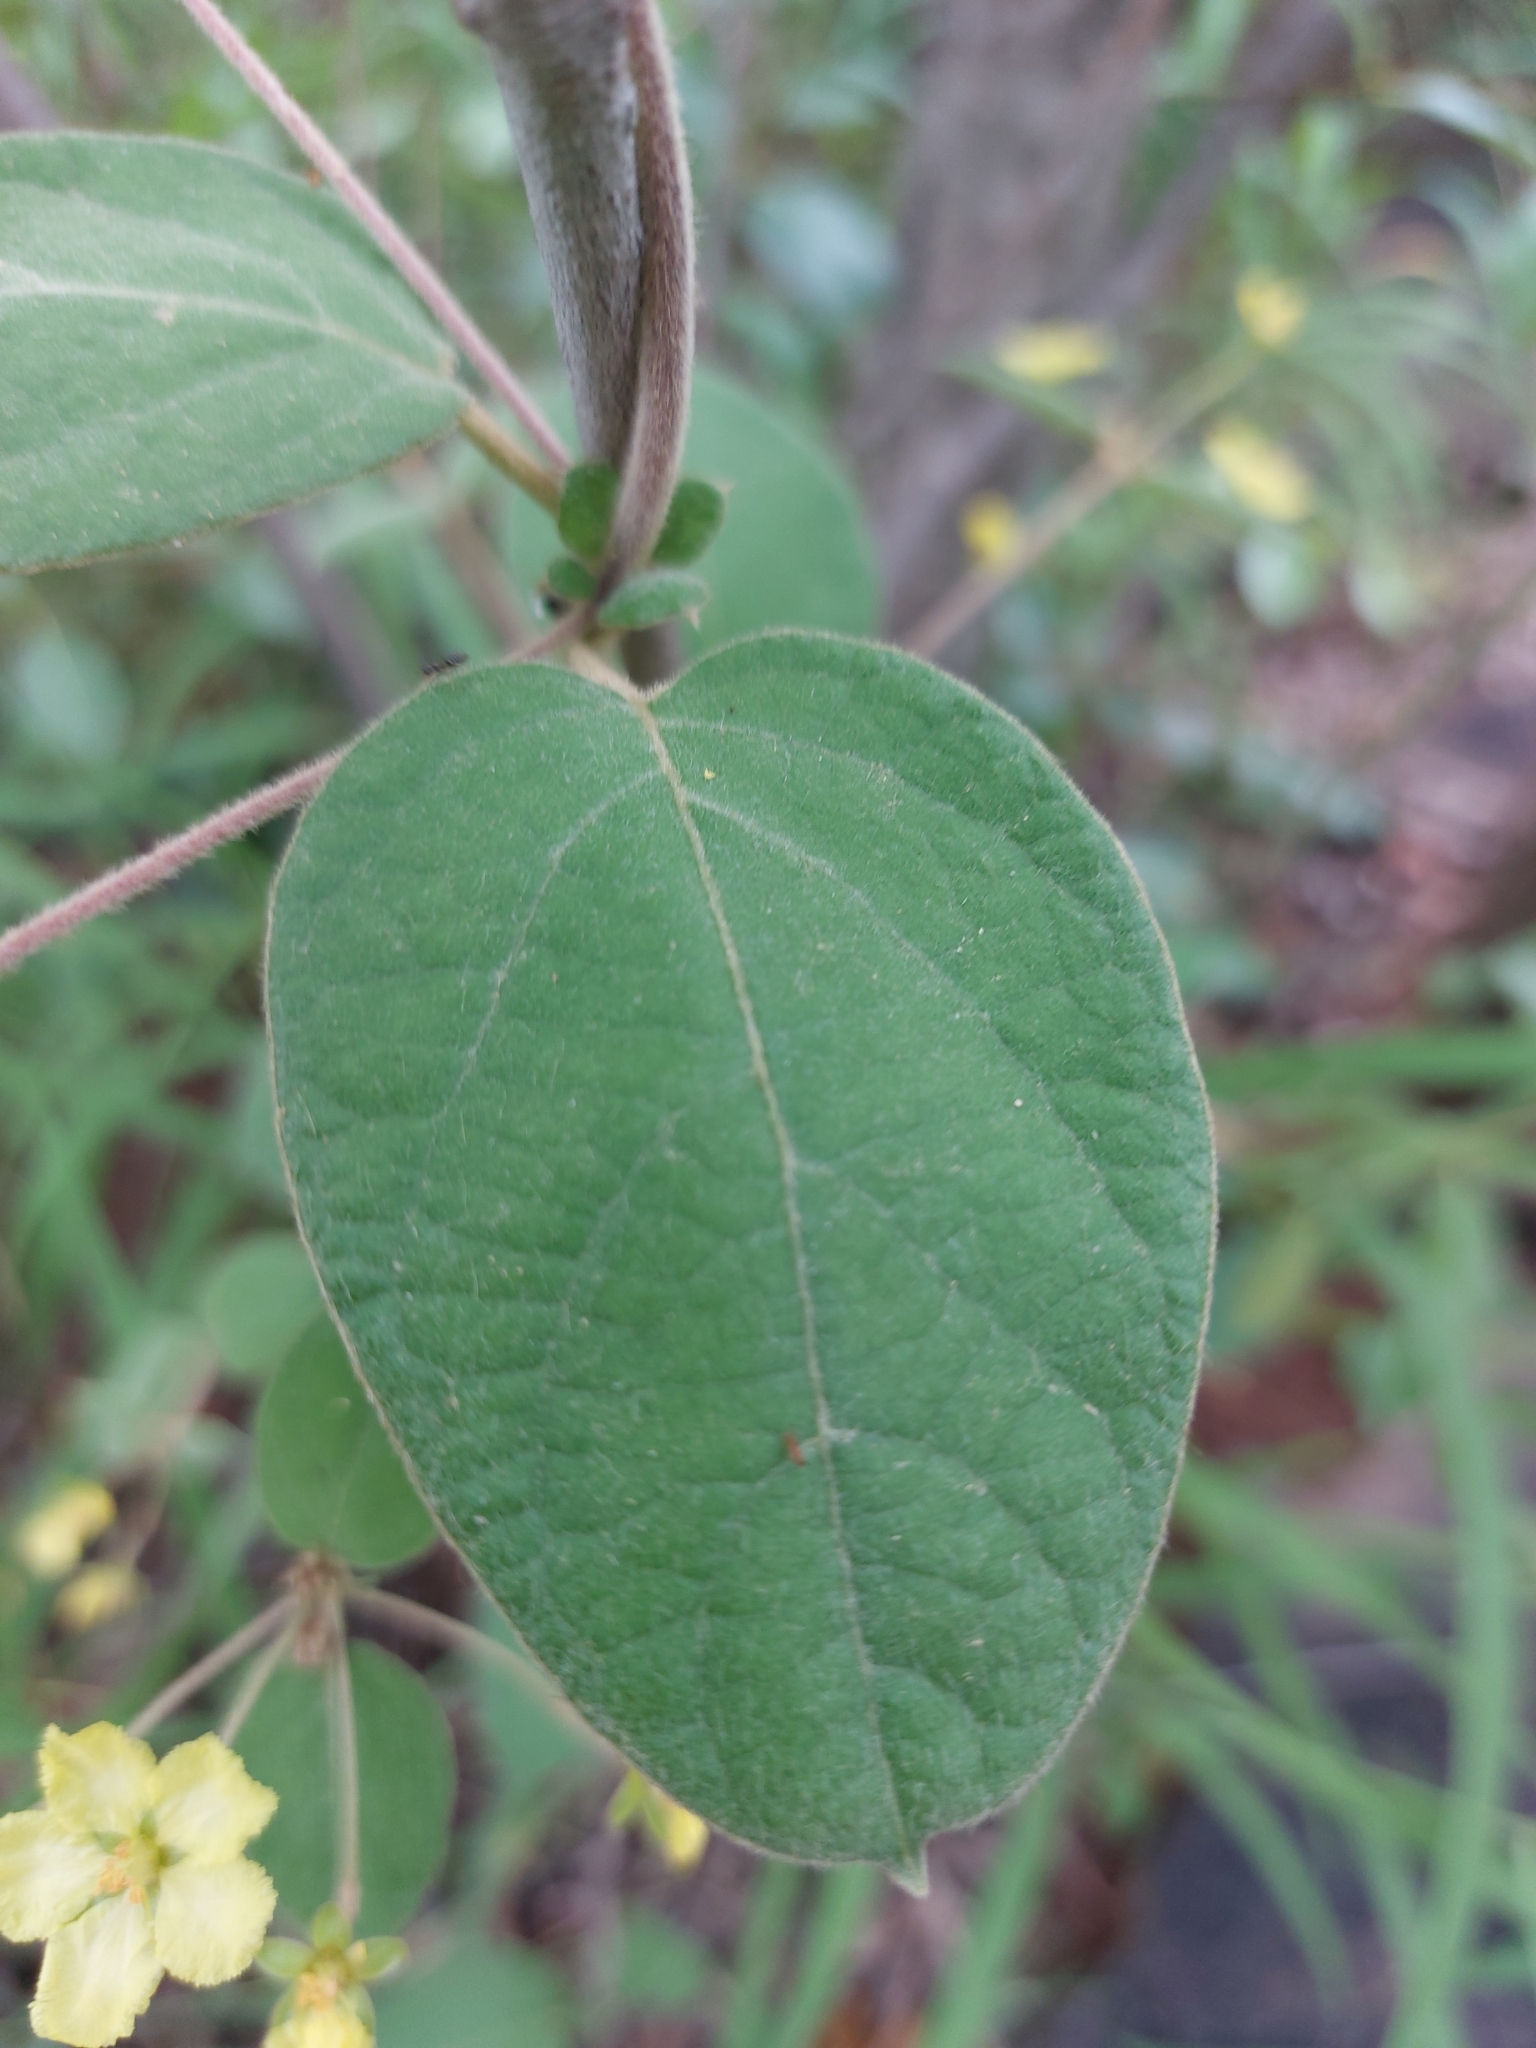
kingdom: Plantae
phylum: Tracheophyta
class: Magnoliopsida
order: Malpighiales
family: Malpighiaceae
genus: Sphedamnocarpus
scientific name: Sphedamnocarpus pruriens
